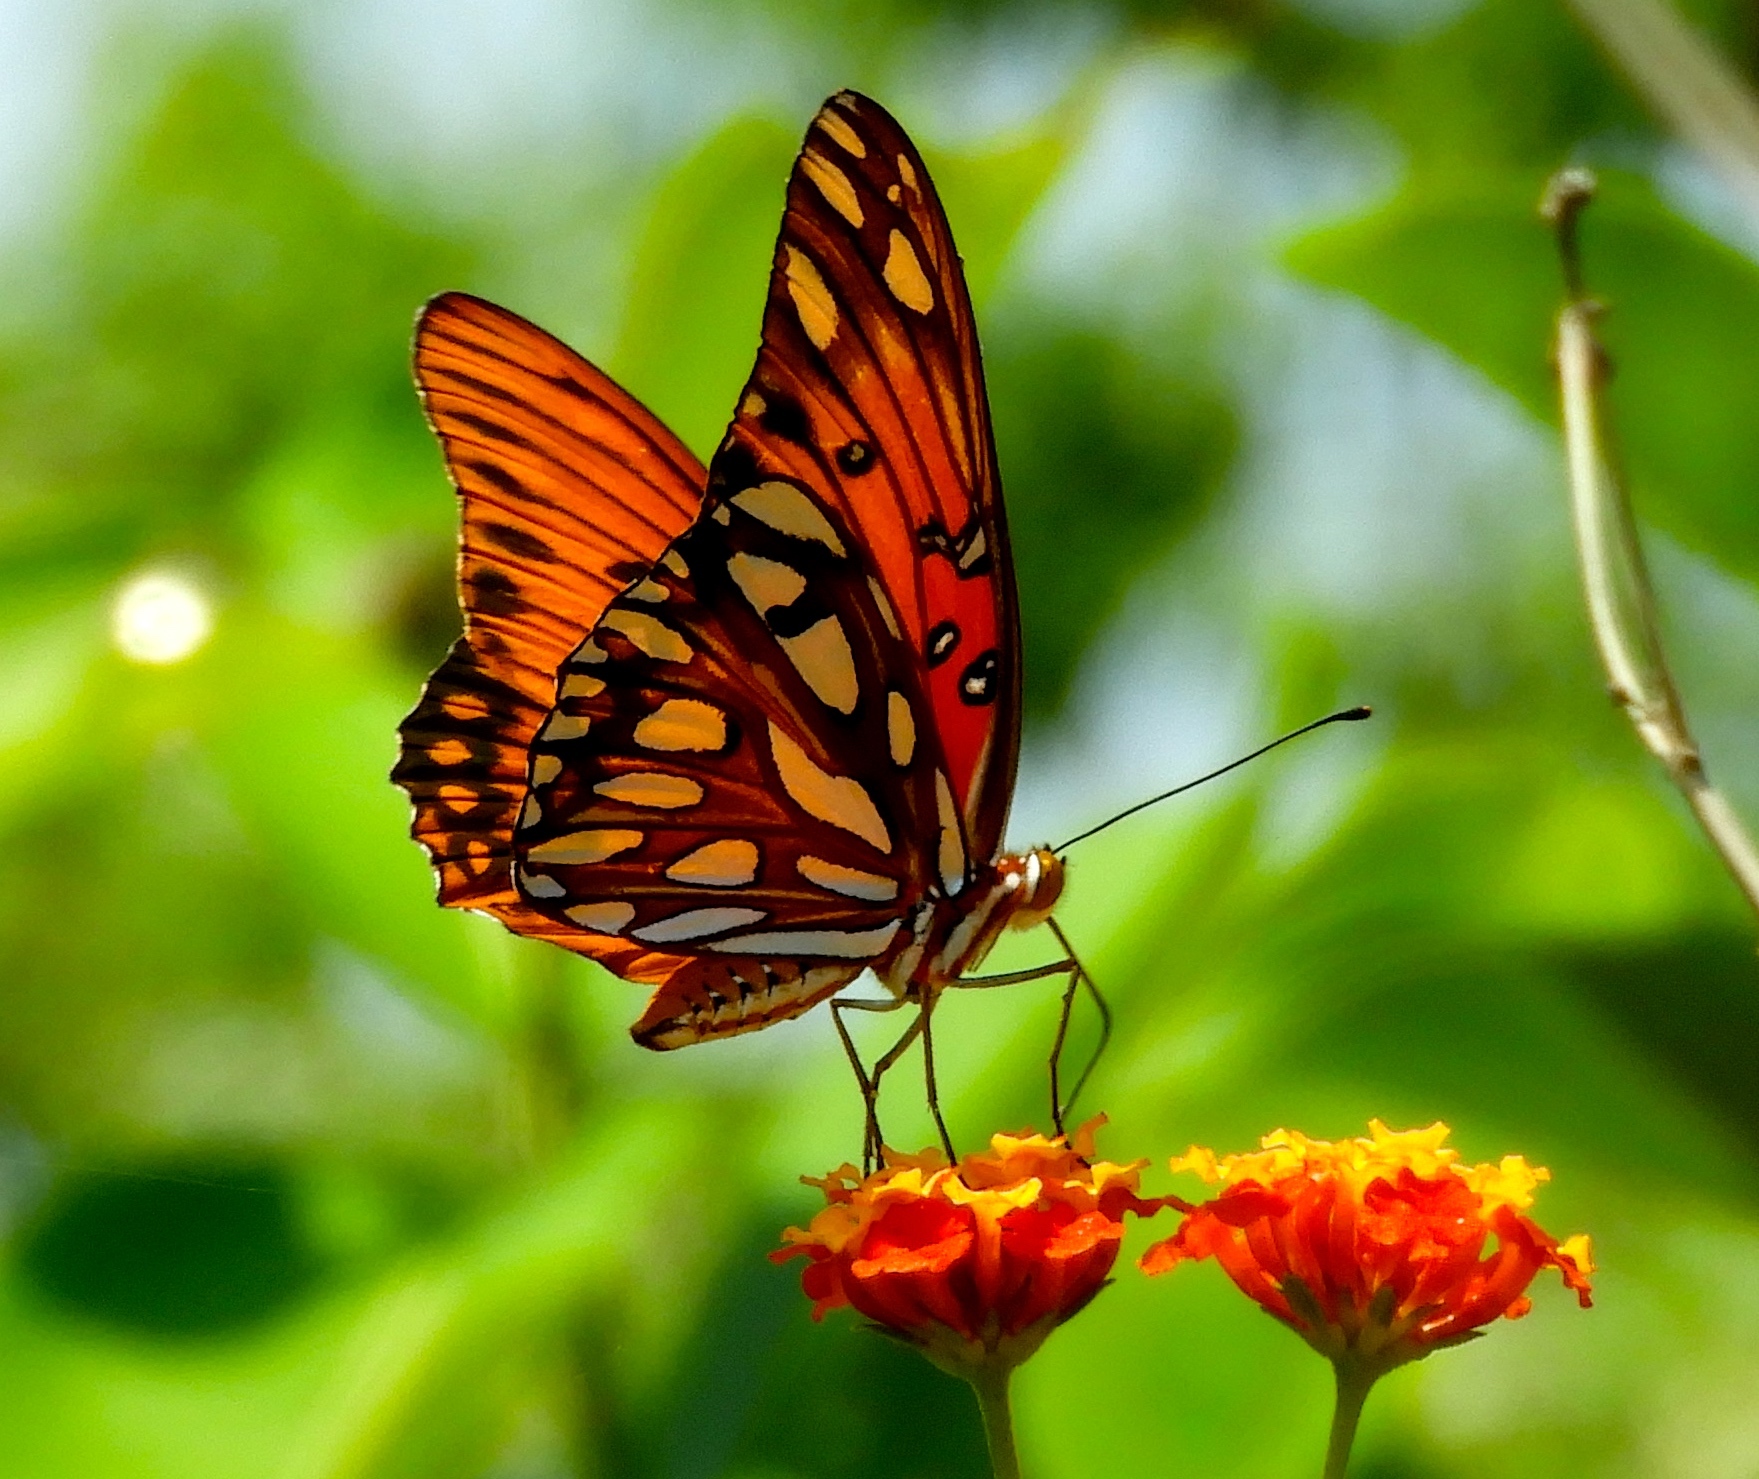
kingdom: Animalia
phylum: Arthropoda
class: Insecta
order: Lepidoptera
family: Nymphalidae
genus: Dione
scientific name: Dione vanillae
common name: Gulf fritillary
